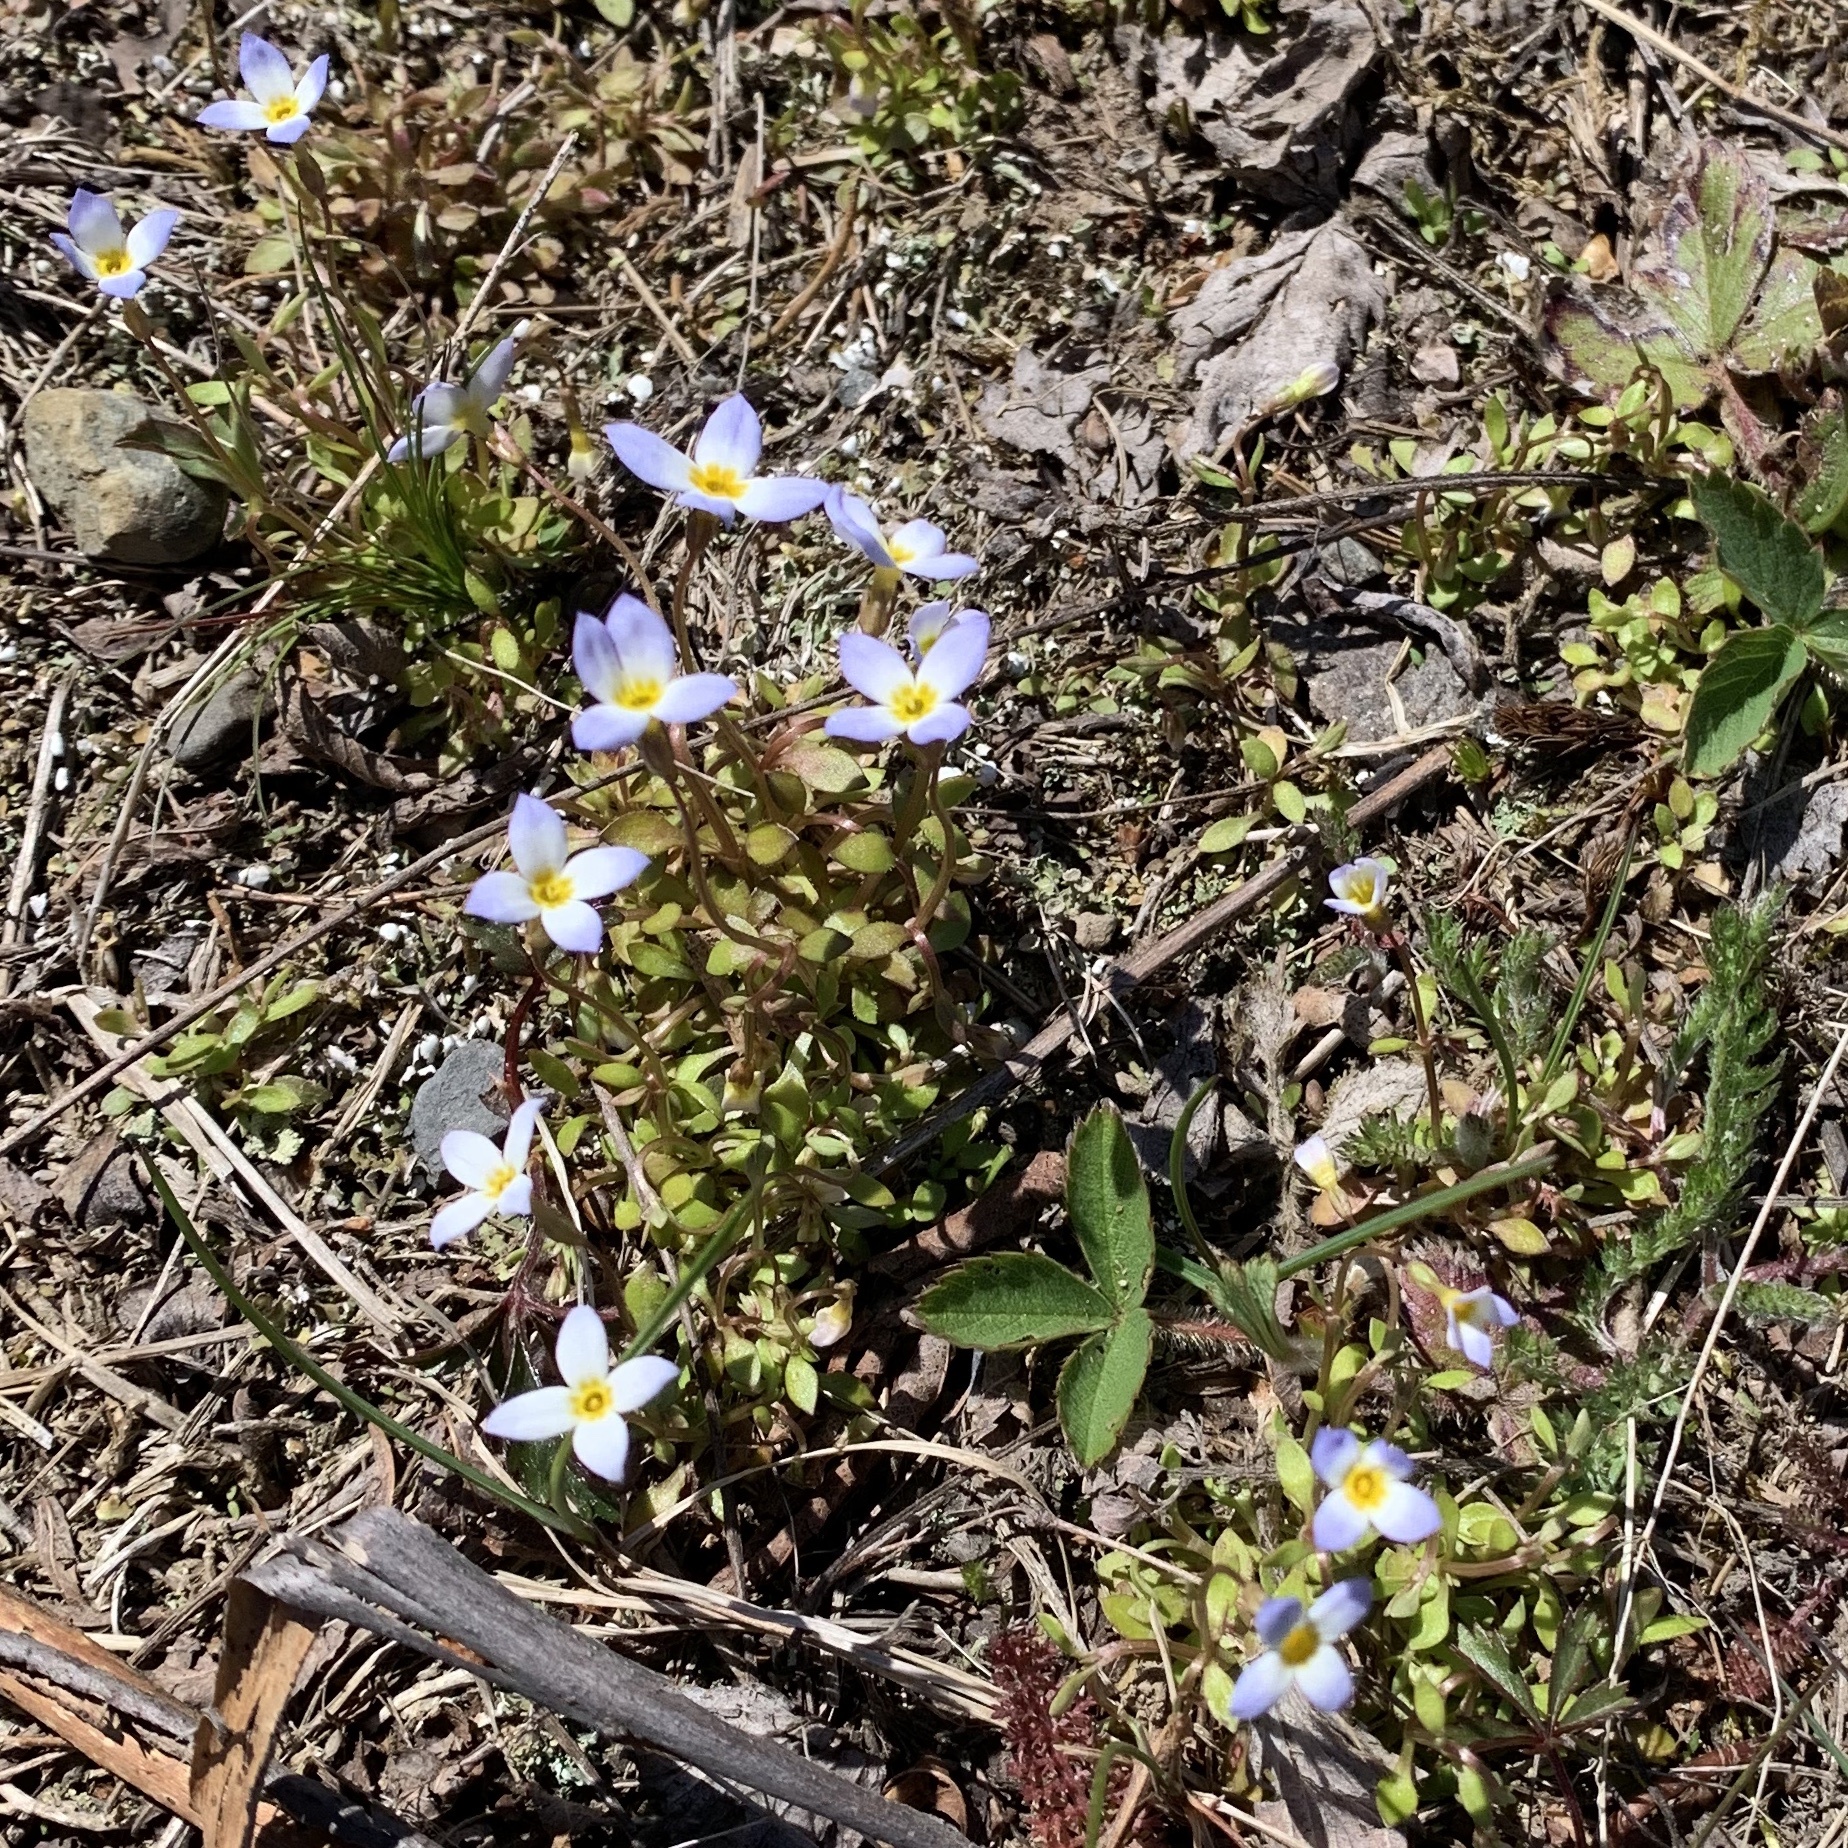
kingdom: Plantae
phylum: Tracheophyta
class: Magnoliopsida
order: Gentianales
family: Rubiaceae
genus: Houstonia
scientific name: Houstonia caerulea
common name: Bluets
